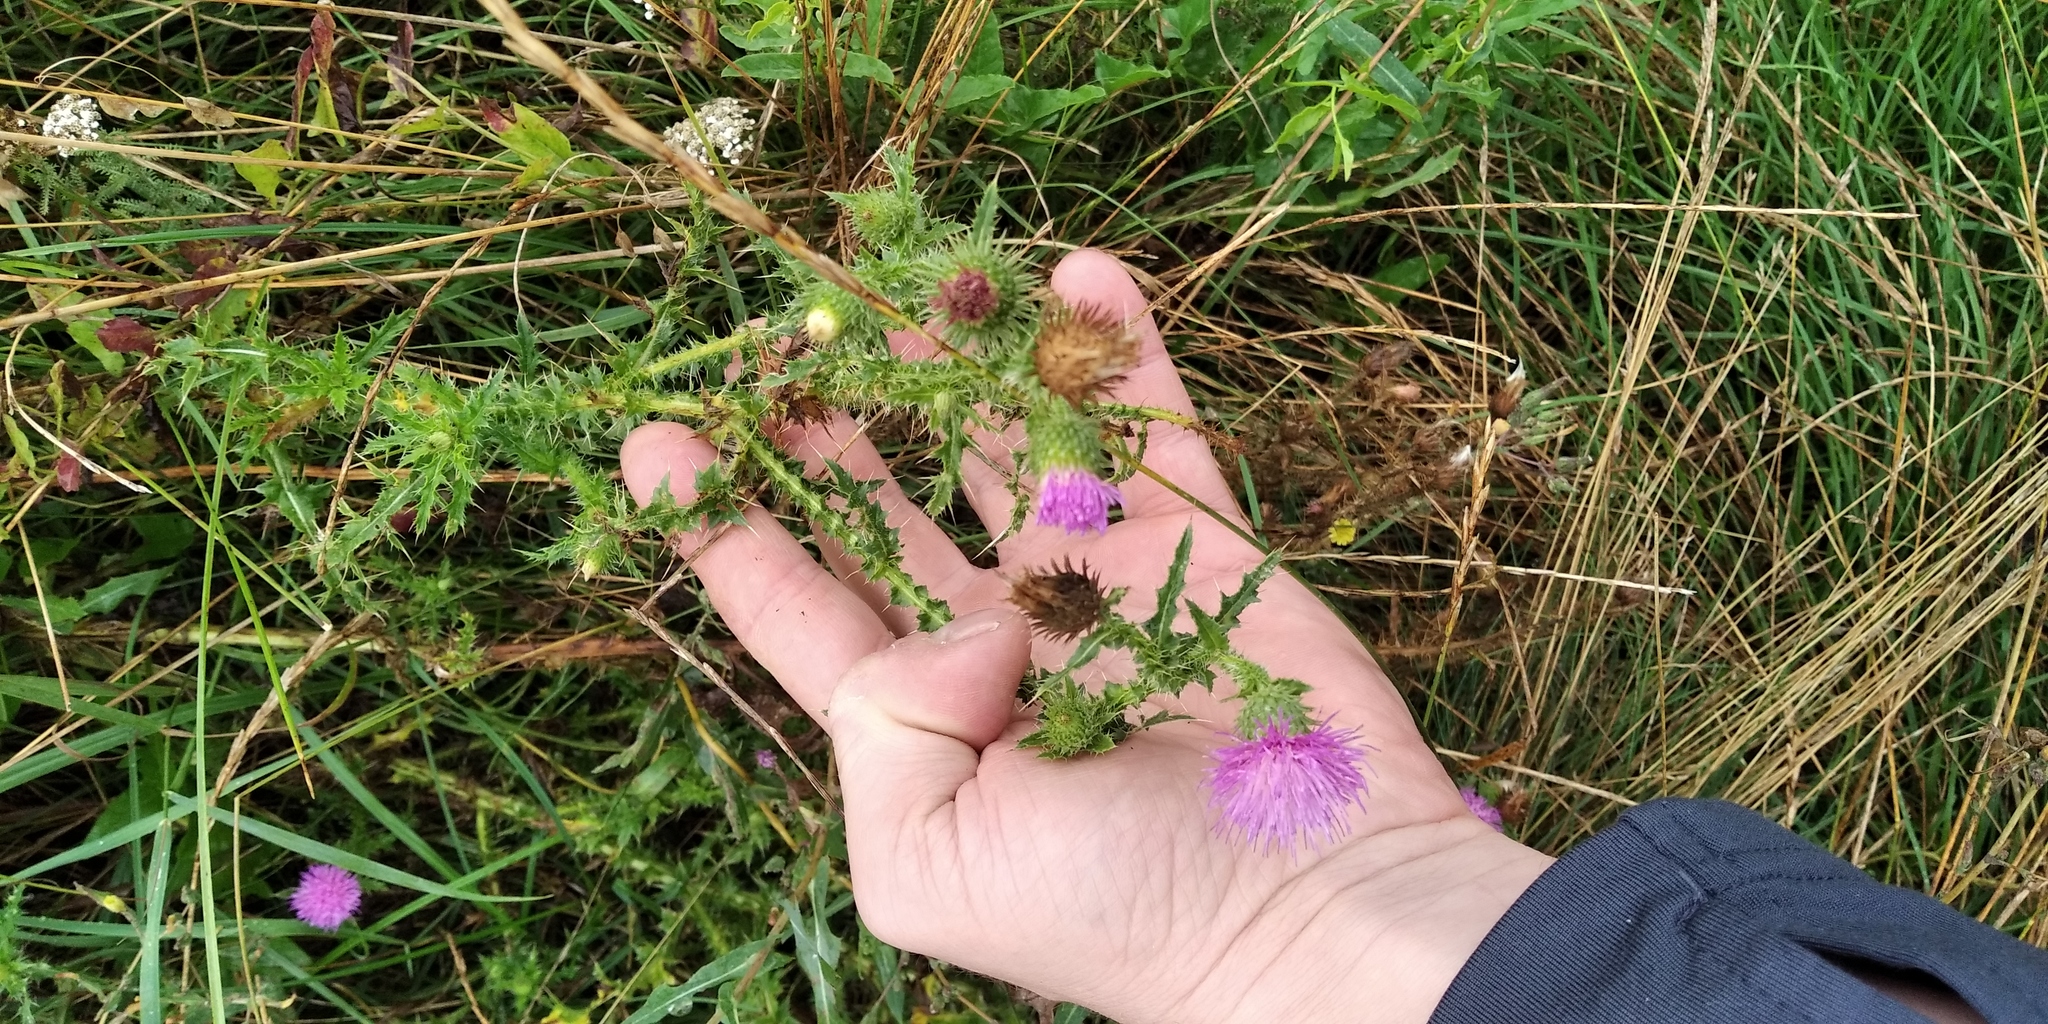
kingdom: Plantae
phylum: Tracheophyta
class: Magnoliopsida
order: Asterales
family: Asteraceae
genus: Carduus
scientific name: Carduus acanthoides
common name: Plumeless thistle
